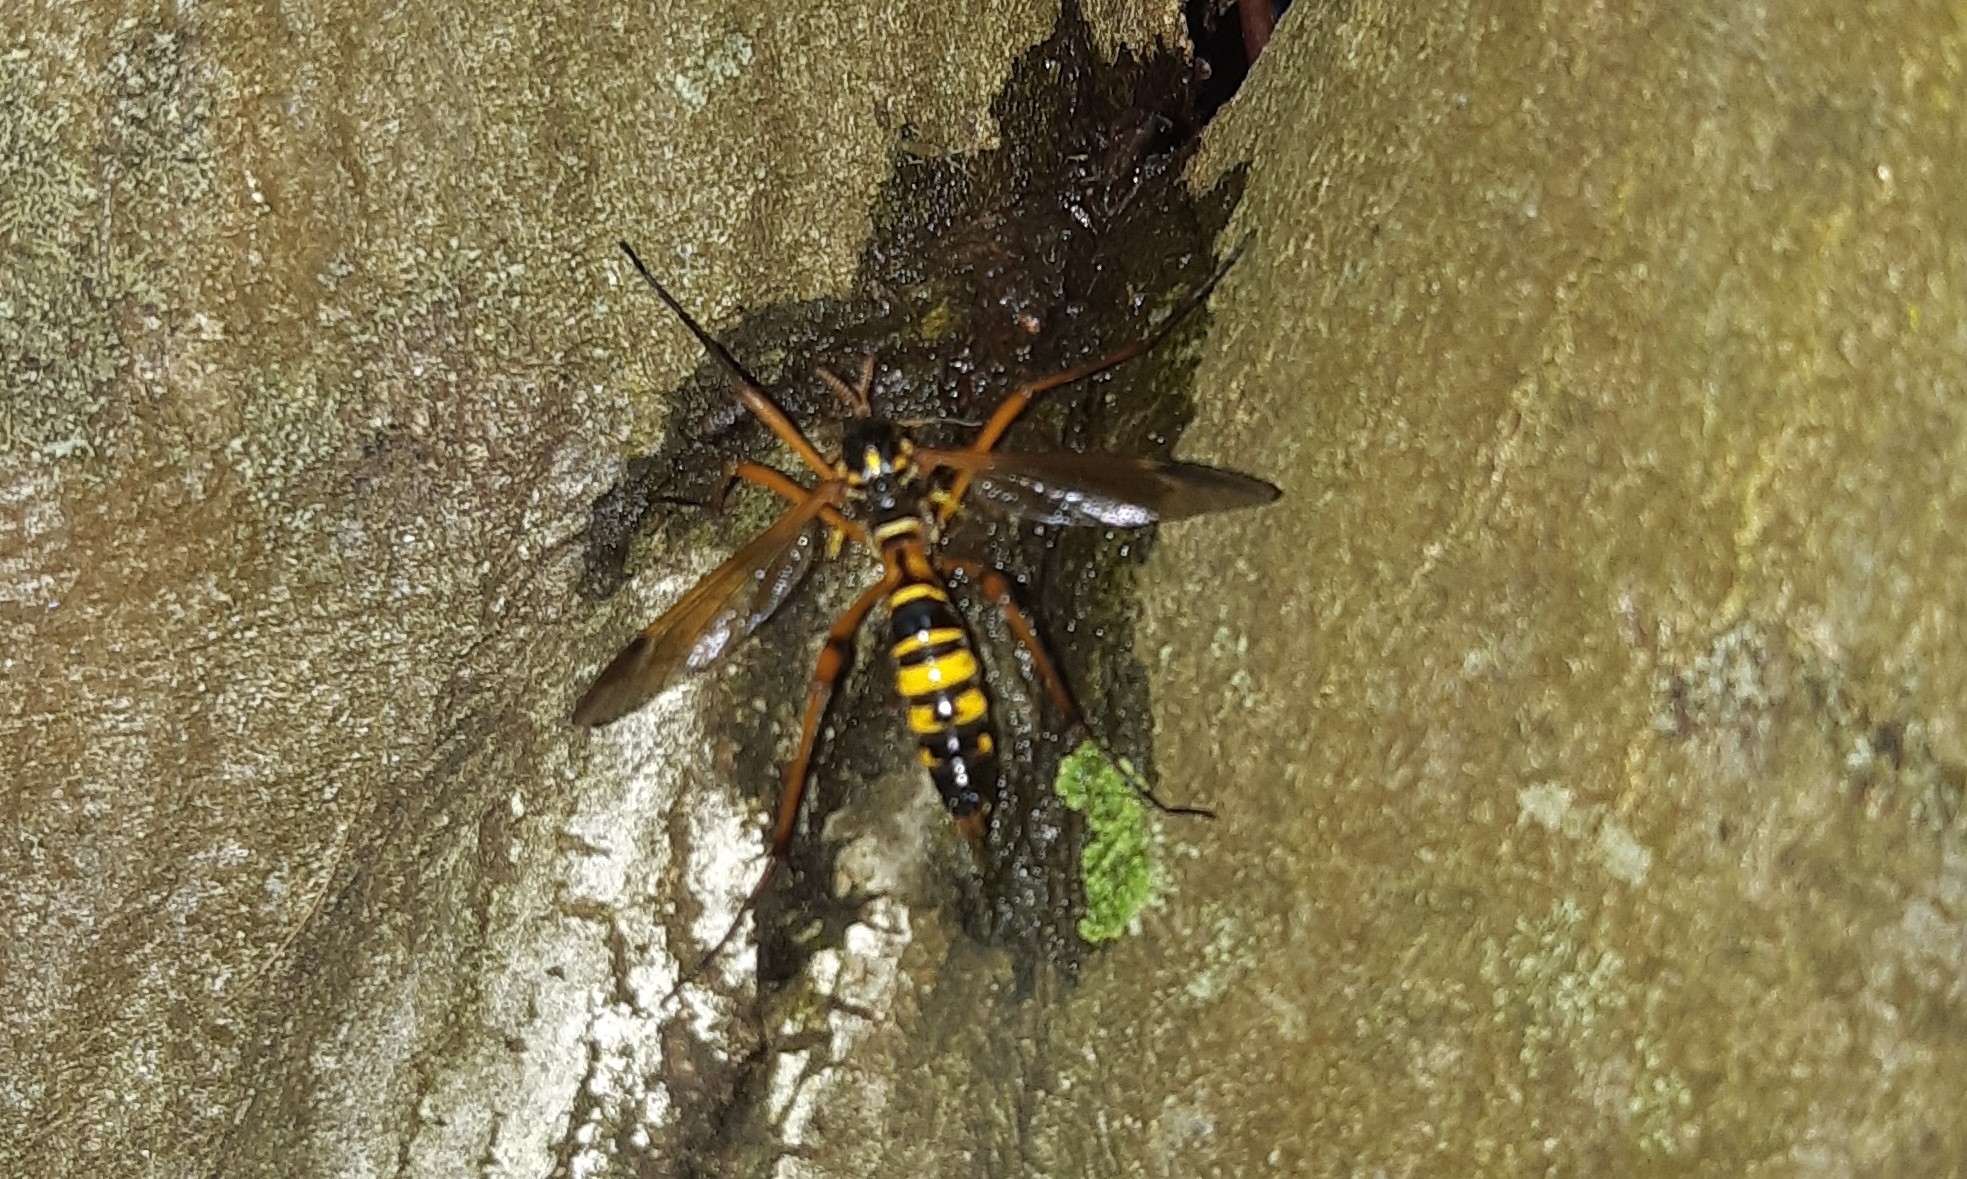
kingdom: Animalia
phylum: Arthropoda
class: Insecta
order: Diptera
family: Tipulidae
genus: Ctenophora
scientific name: Ctenophora elegans
